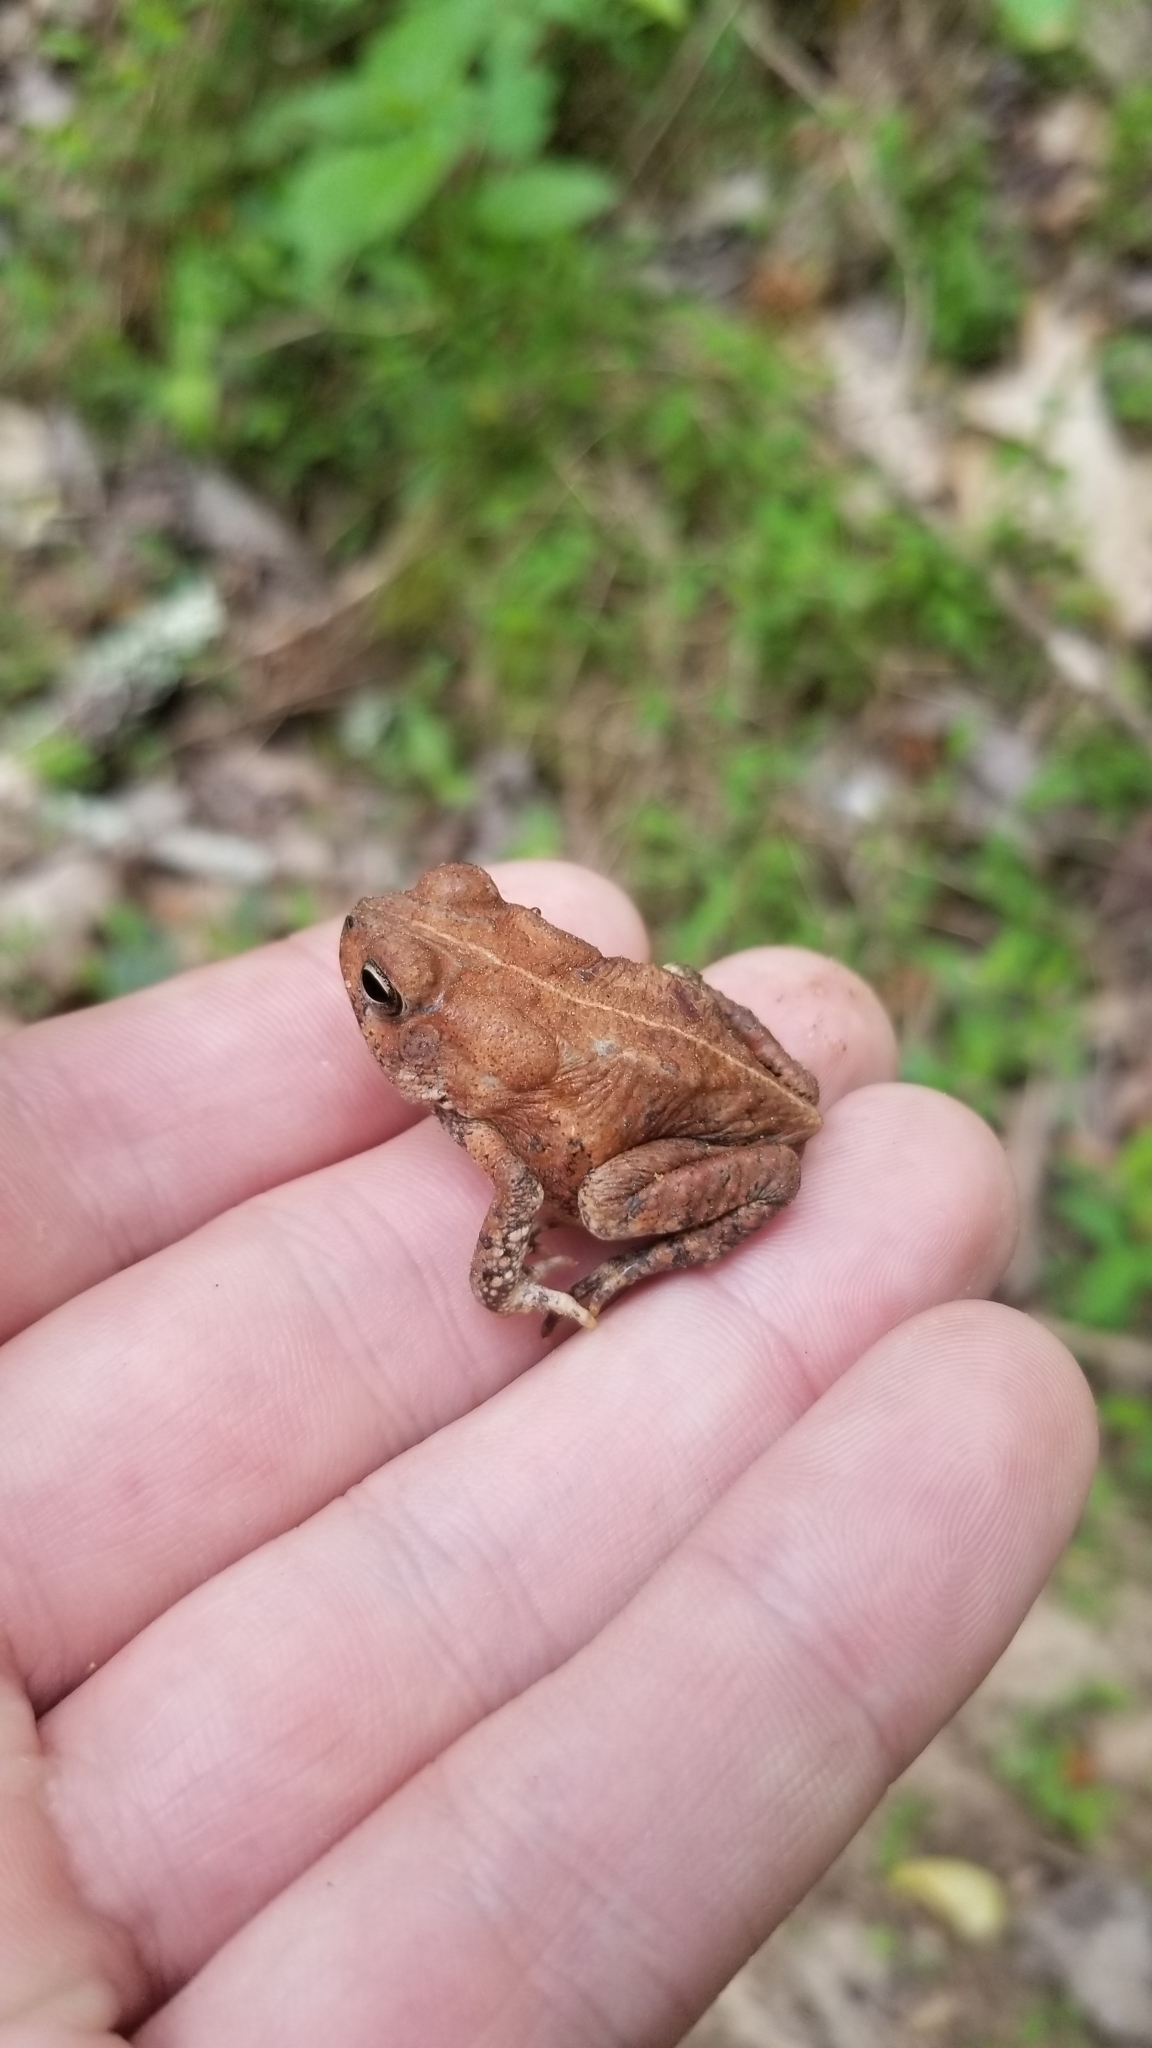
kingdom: Animalia
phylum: Chordata
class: Amphibia
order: Anura
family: Bufonidae
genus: Anaxyrus
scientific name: Anaxyrus americanus
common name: American toad
